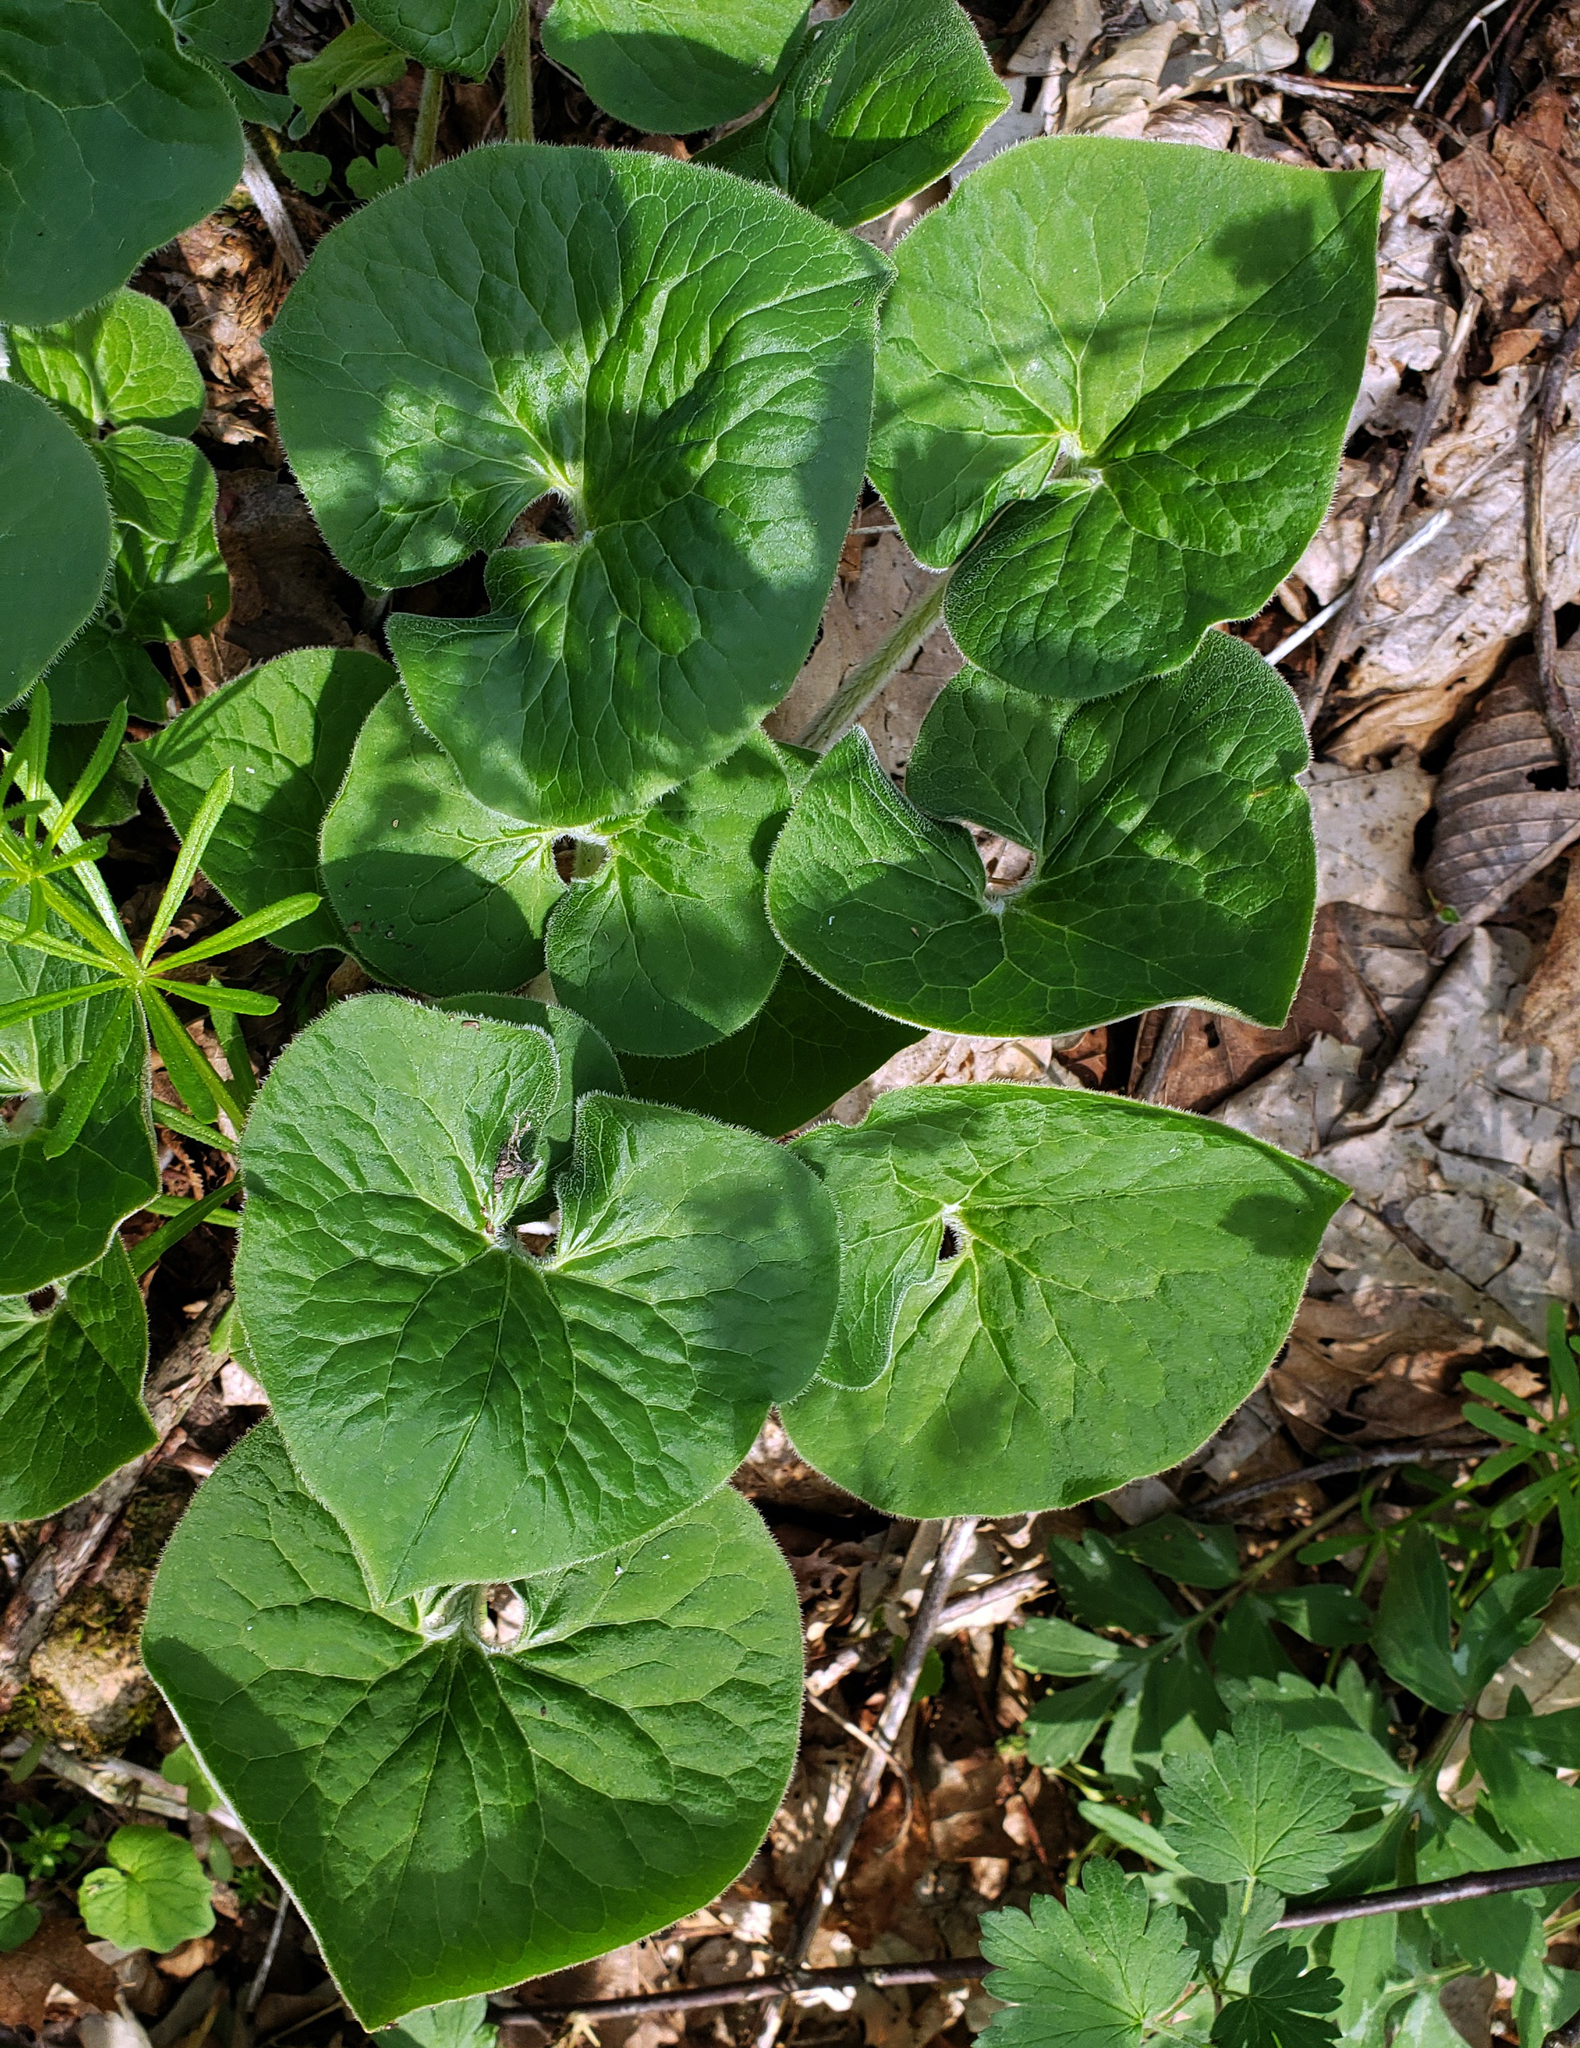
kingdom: Plantae
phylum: Tracheophyta
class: Magnoliopsida
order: Piperales
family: Aristolochiaceae
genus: Asarum
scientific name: Asarum canadense
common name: Wild ginger
